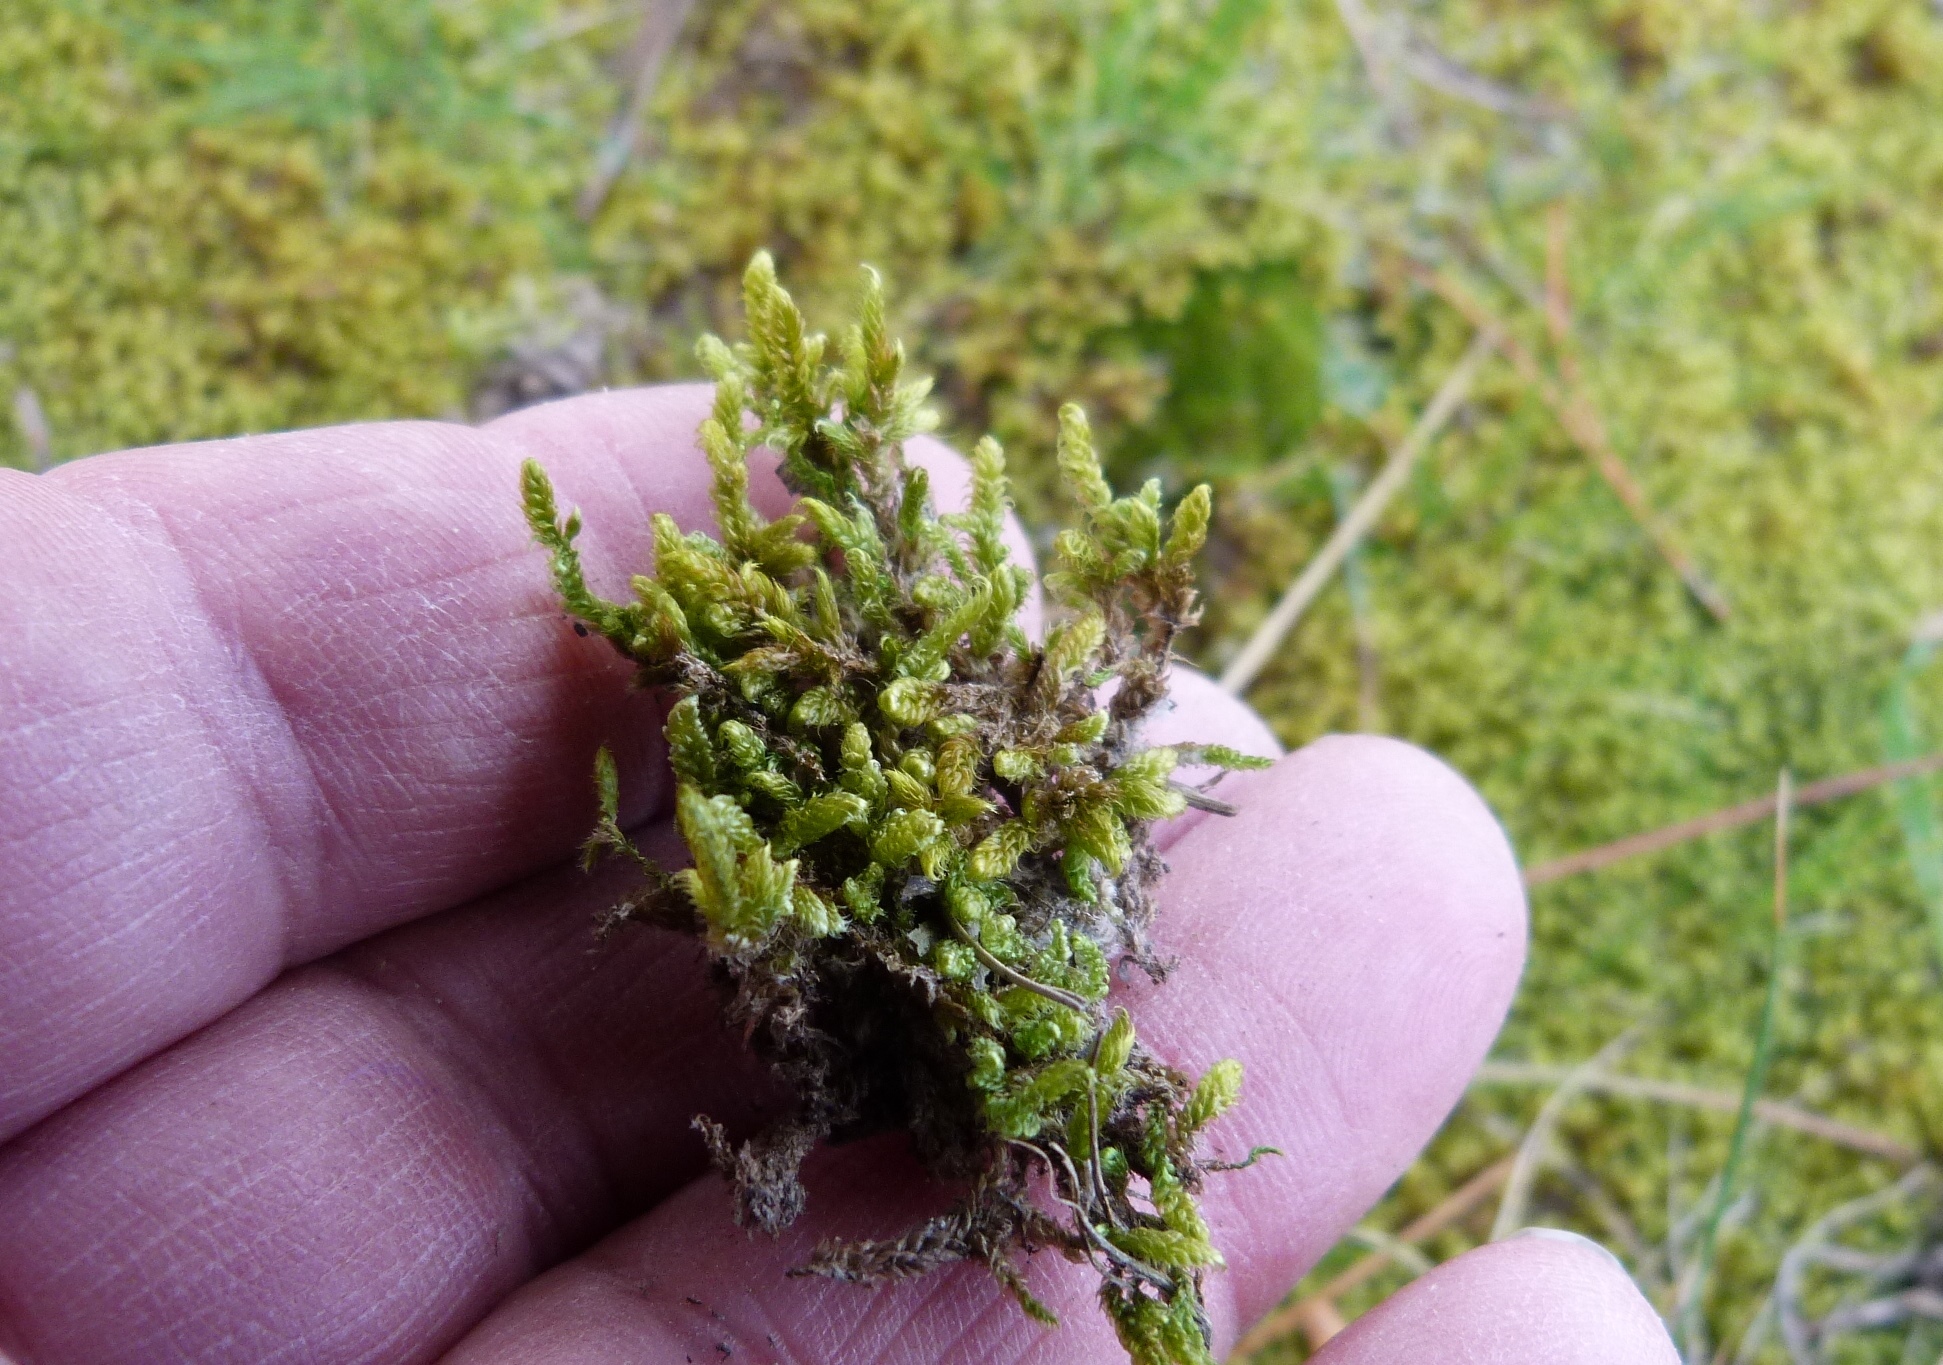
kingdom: Plantae
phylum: Bryophyta
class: Bryopsida
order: Hypnales
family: Hypnaceae
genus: Hypnum
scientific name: Hypnum cupressiforme
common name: Cypress-leaved plait-moss
